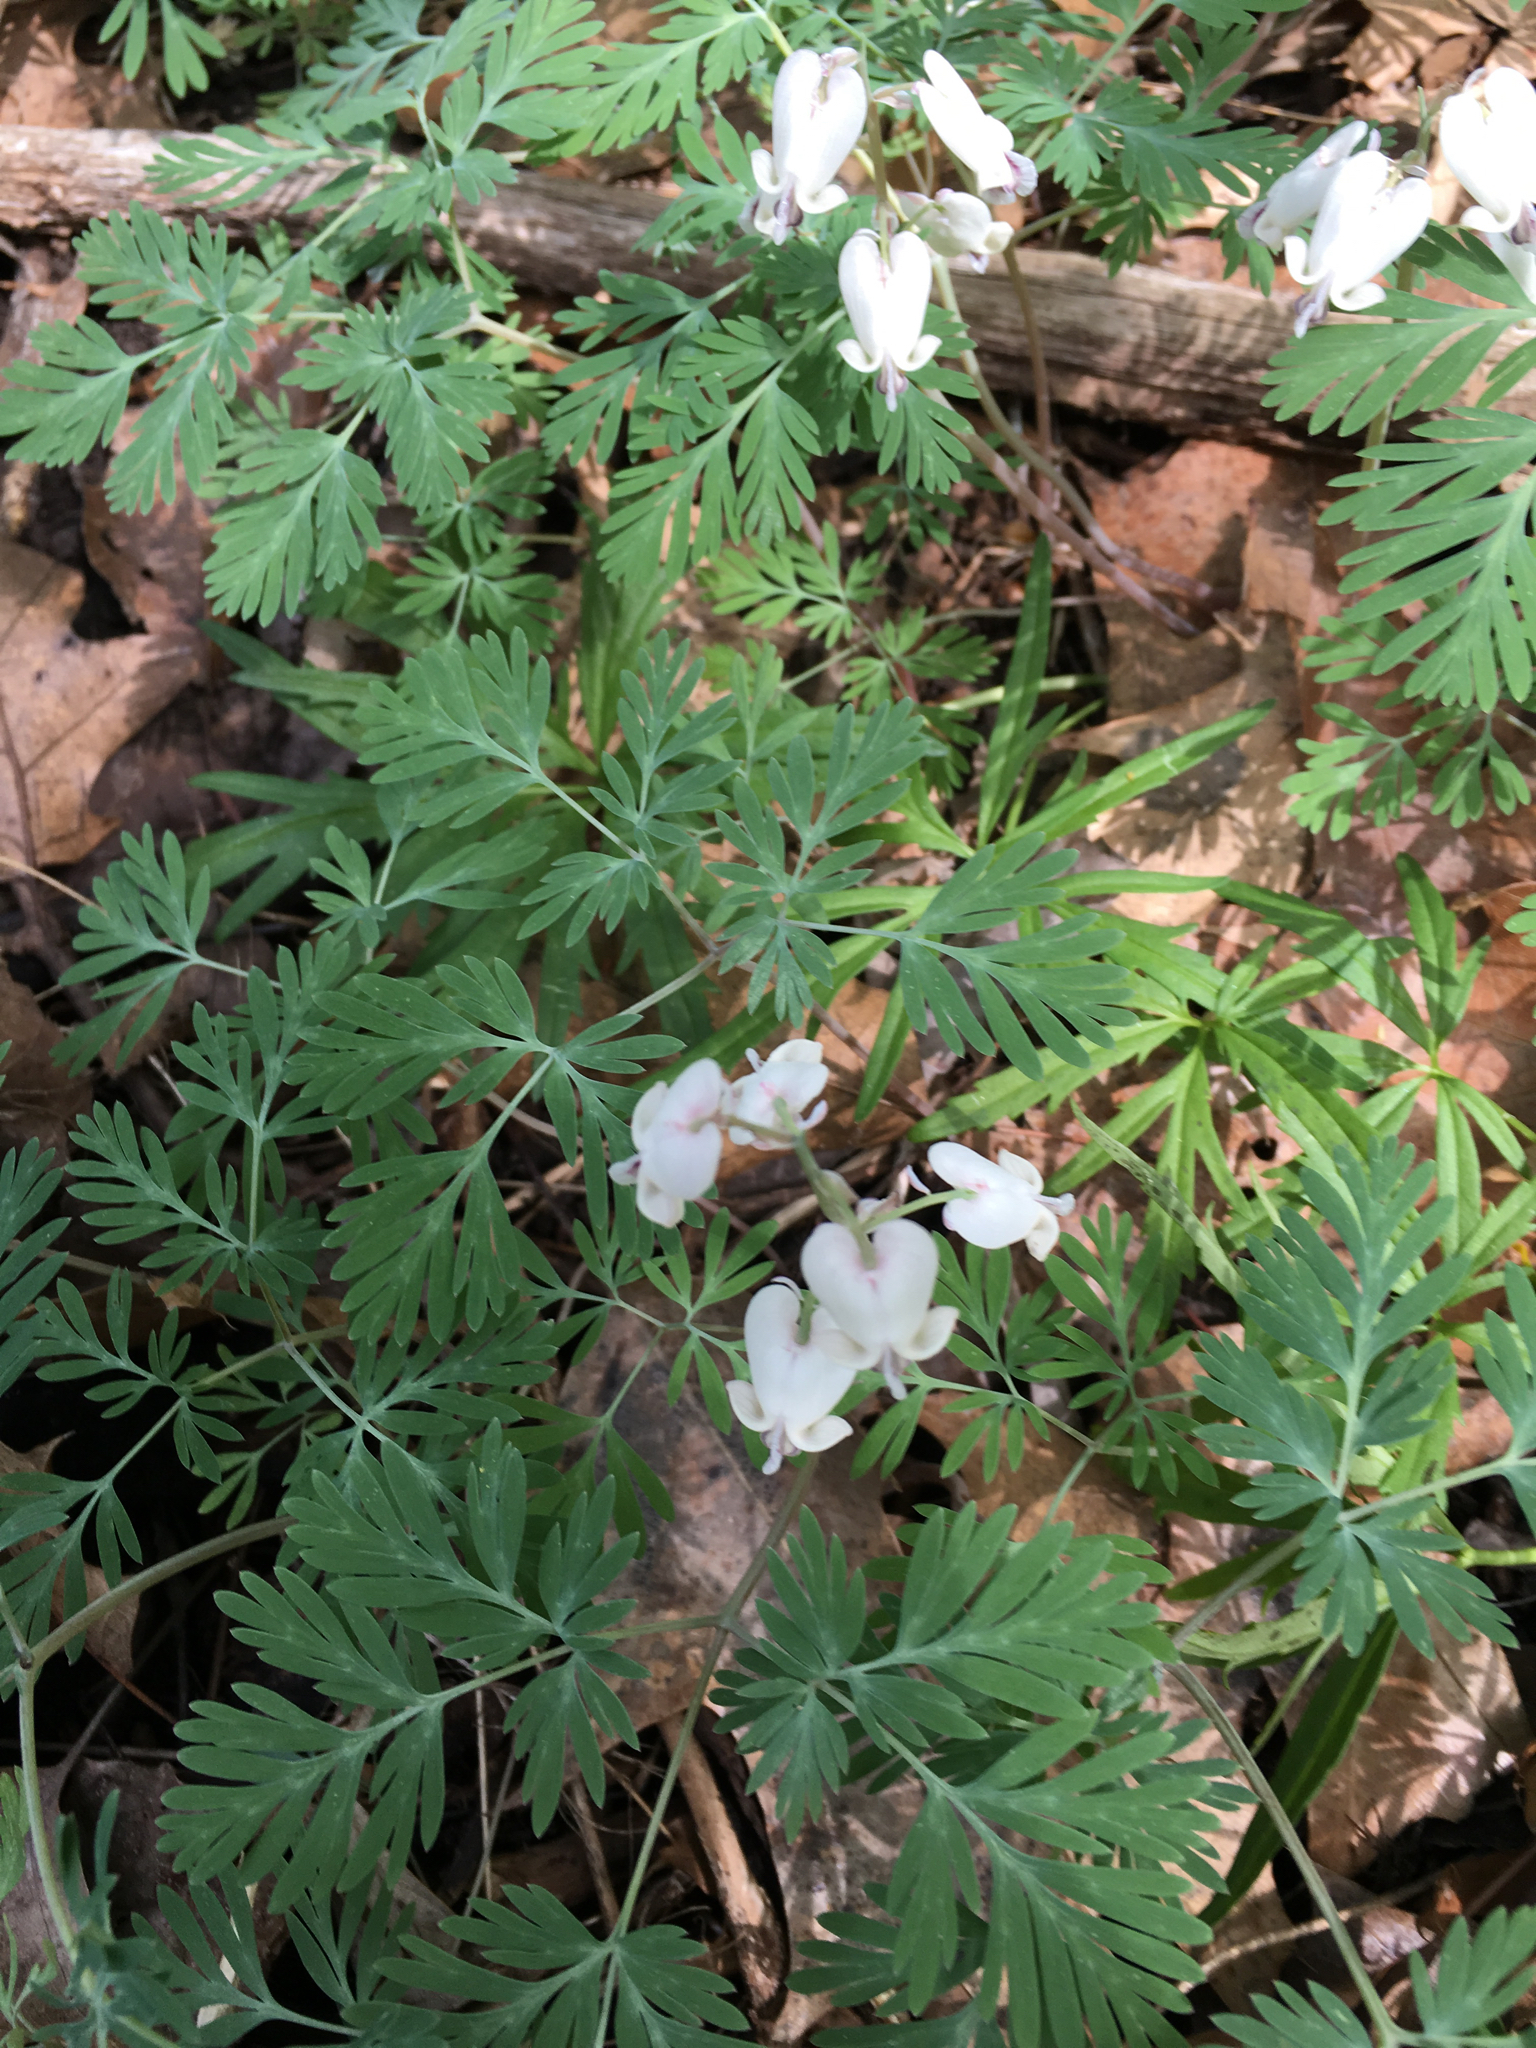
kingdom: Plantae
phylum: Tracheophyta
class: Magnoliopsida
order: Ranunculales
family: Papaveraceae
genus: Dicentra
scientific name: Dicentra canadensis
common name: Squirrel-corn
